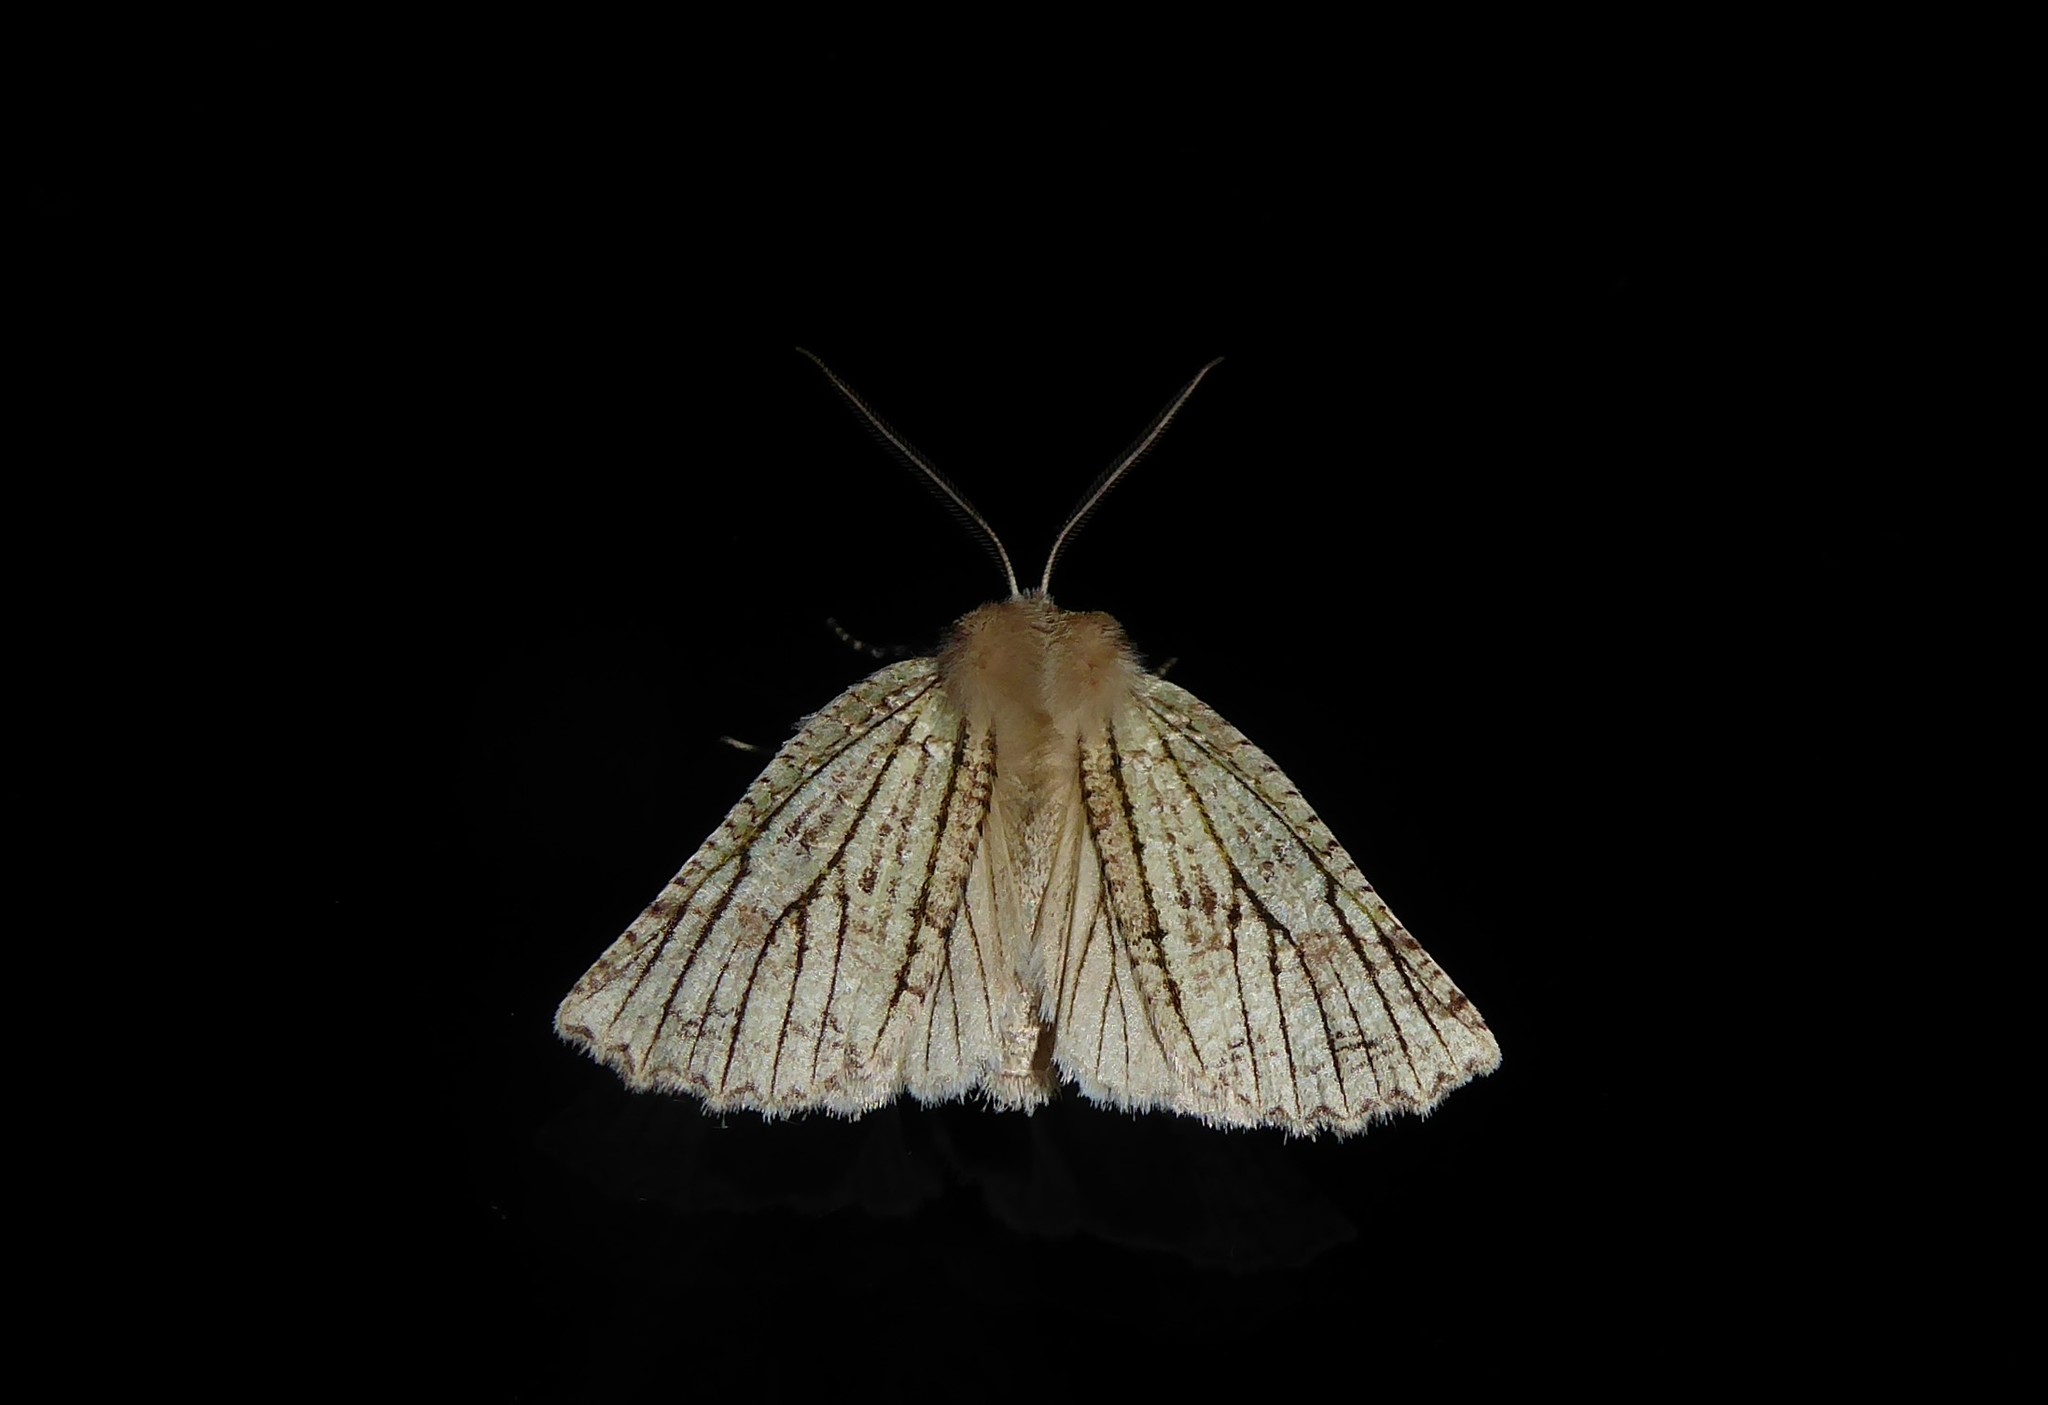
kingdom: Animalia
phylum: Arthropoda
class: Insecta
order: Lepidoptera
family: Geometridae
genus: Declana
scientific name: Declana floccosa
